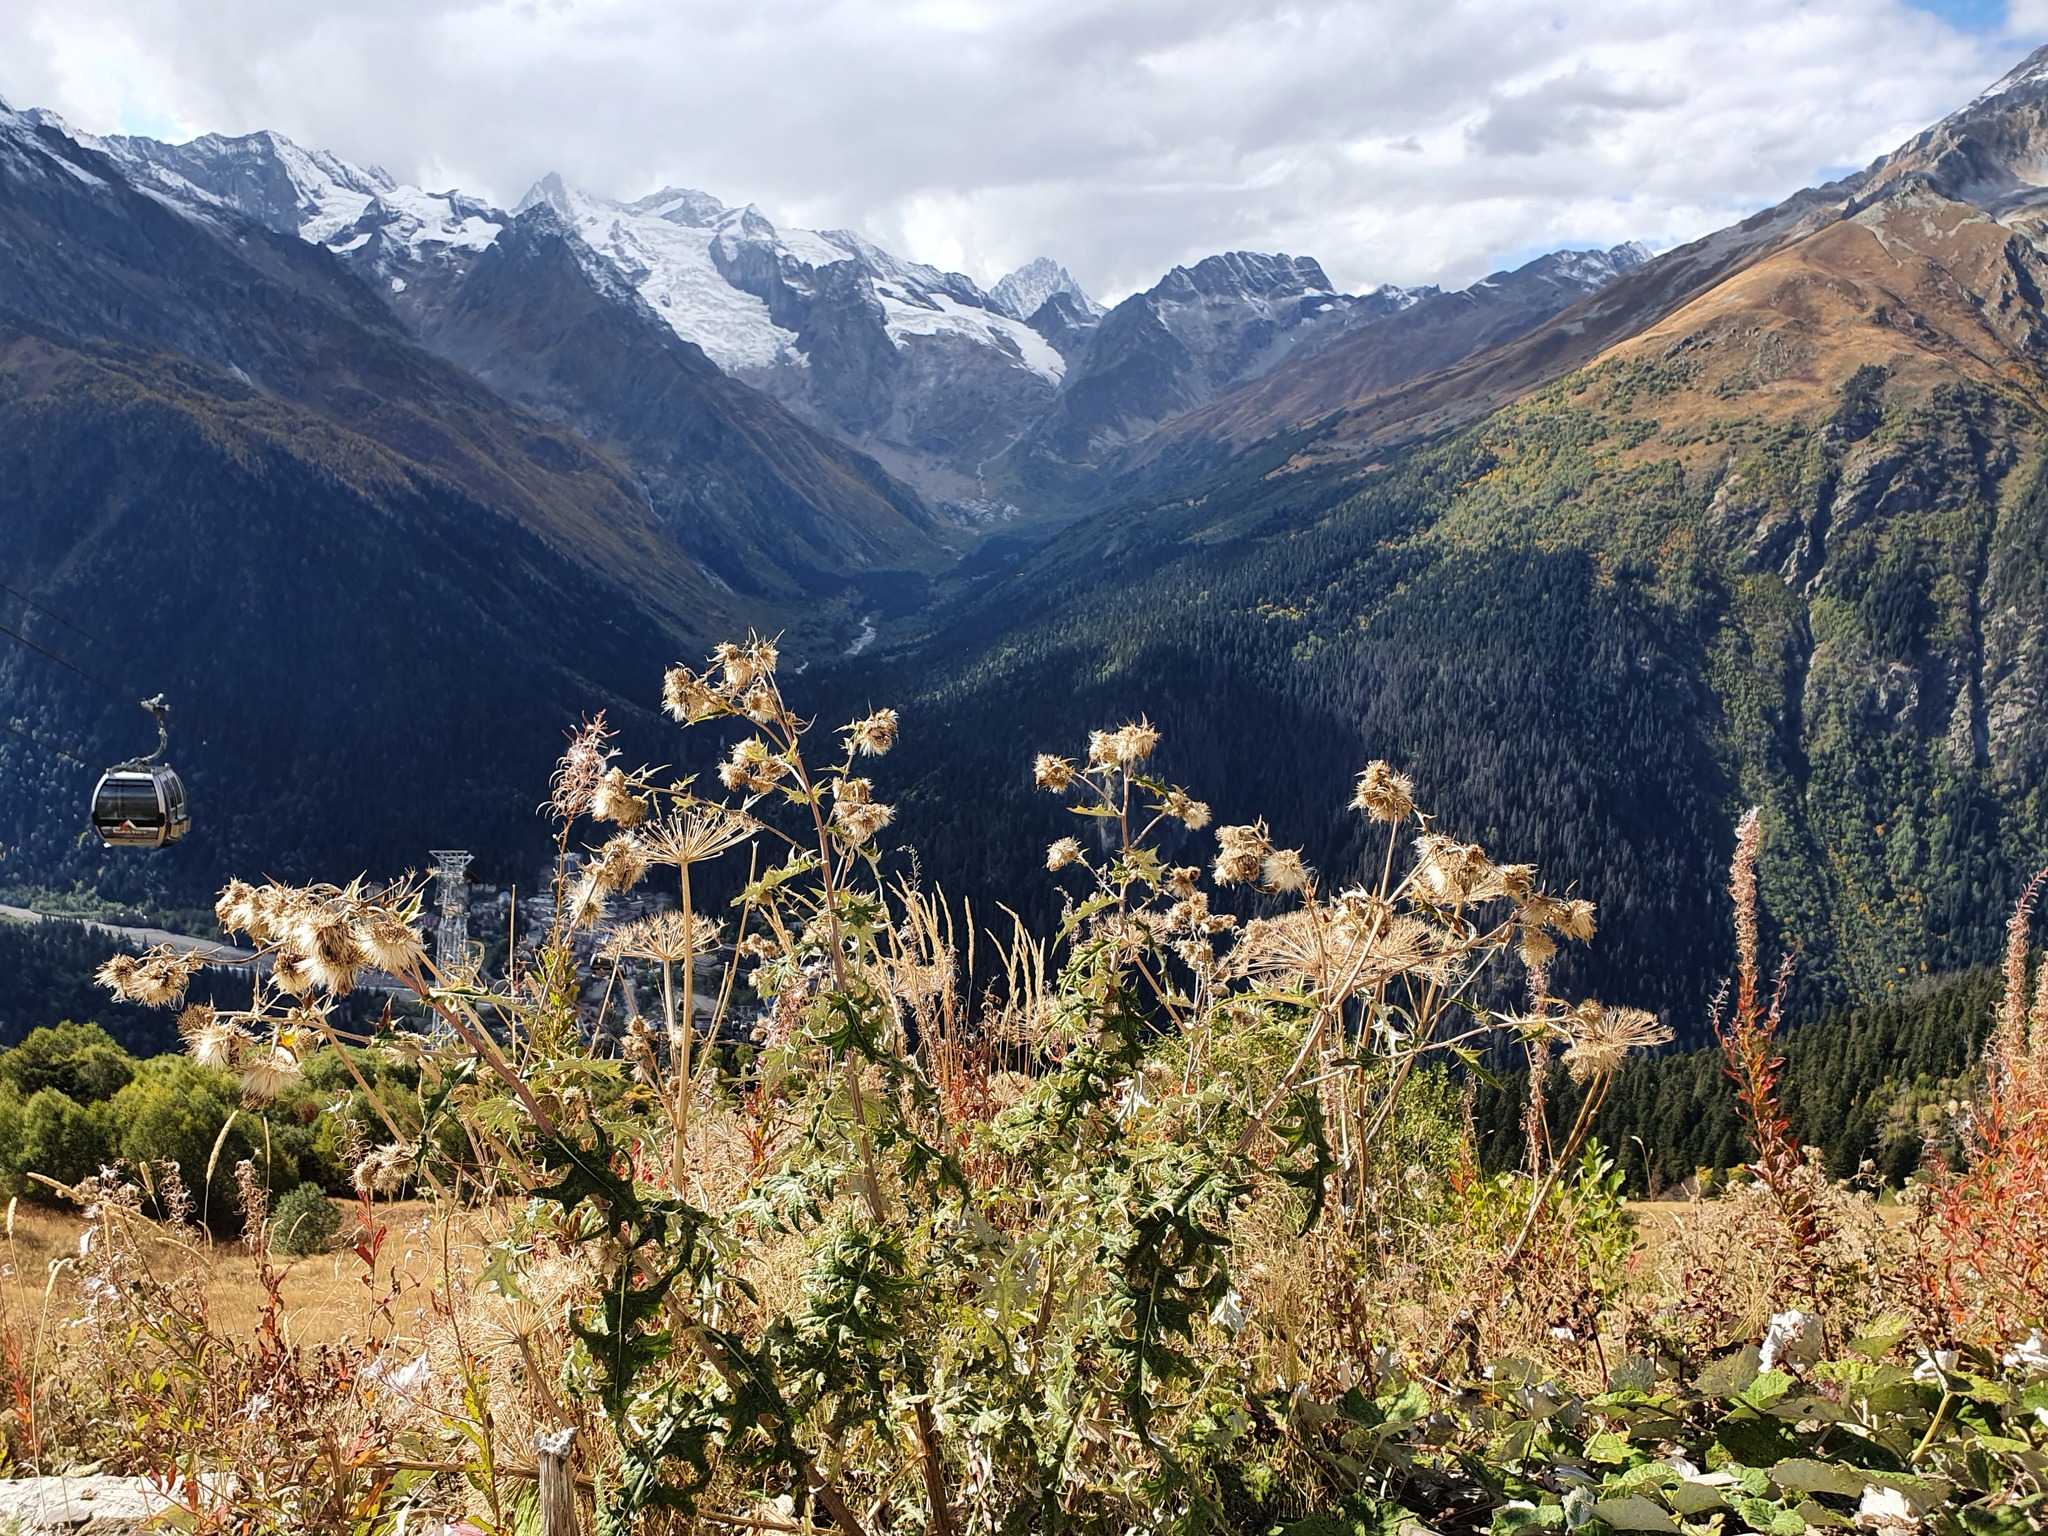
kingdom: Plantae
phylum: Tracheophyta
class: Magnoliopsida
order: Asterales
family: Asteraceae
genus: Lophiolepis
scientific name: Lophiolepis chlorocoma
